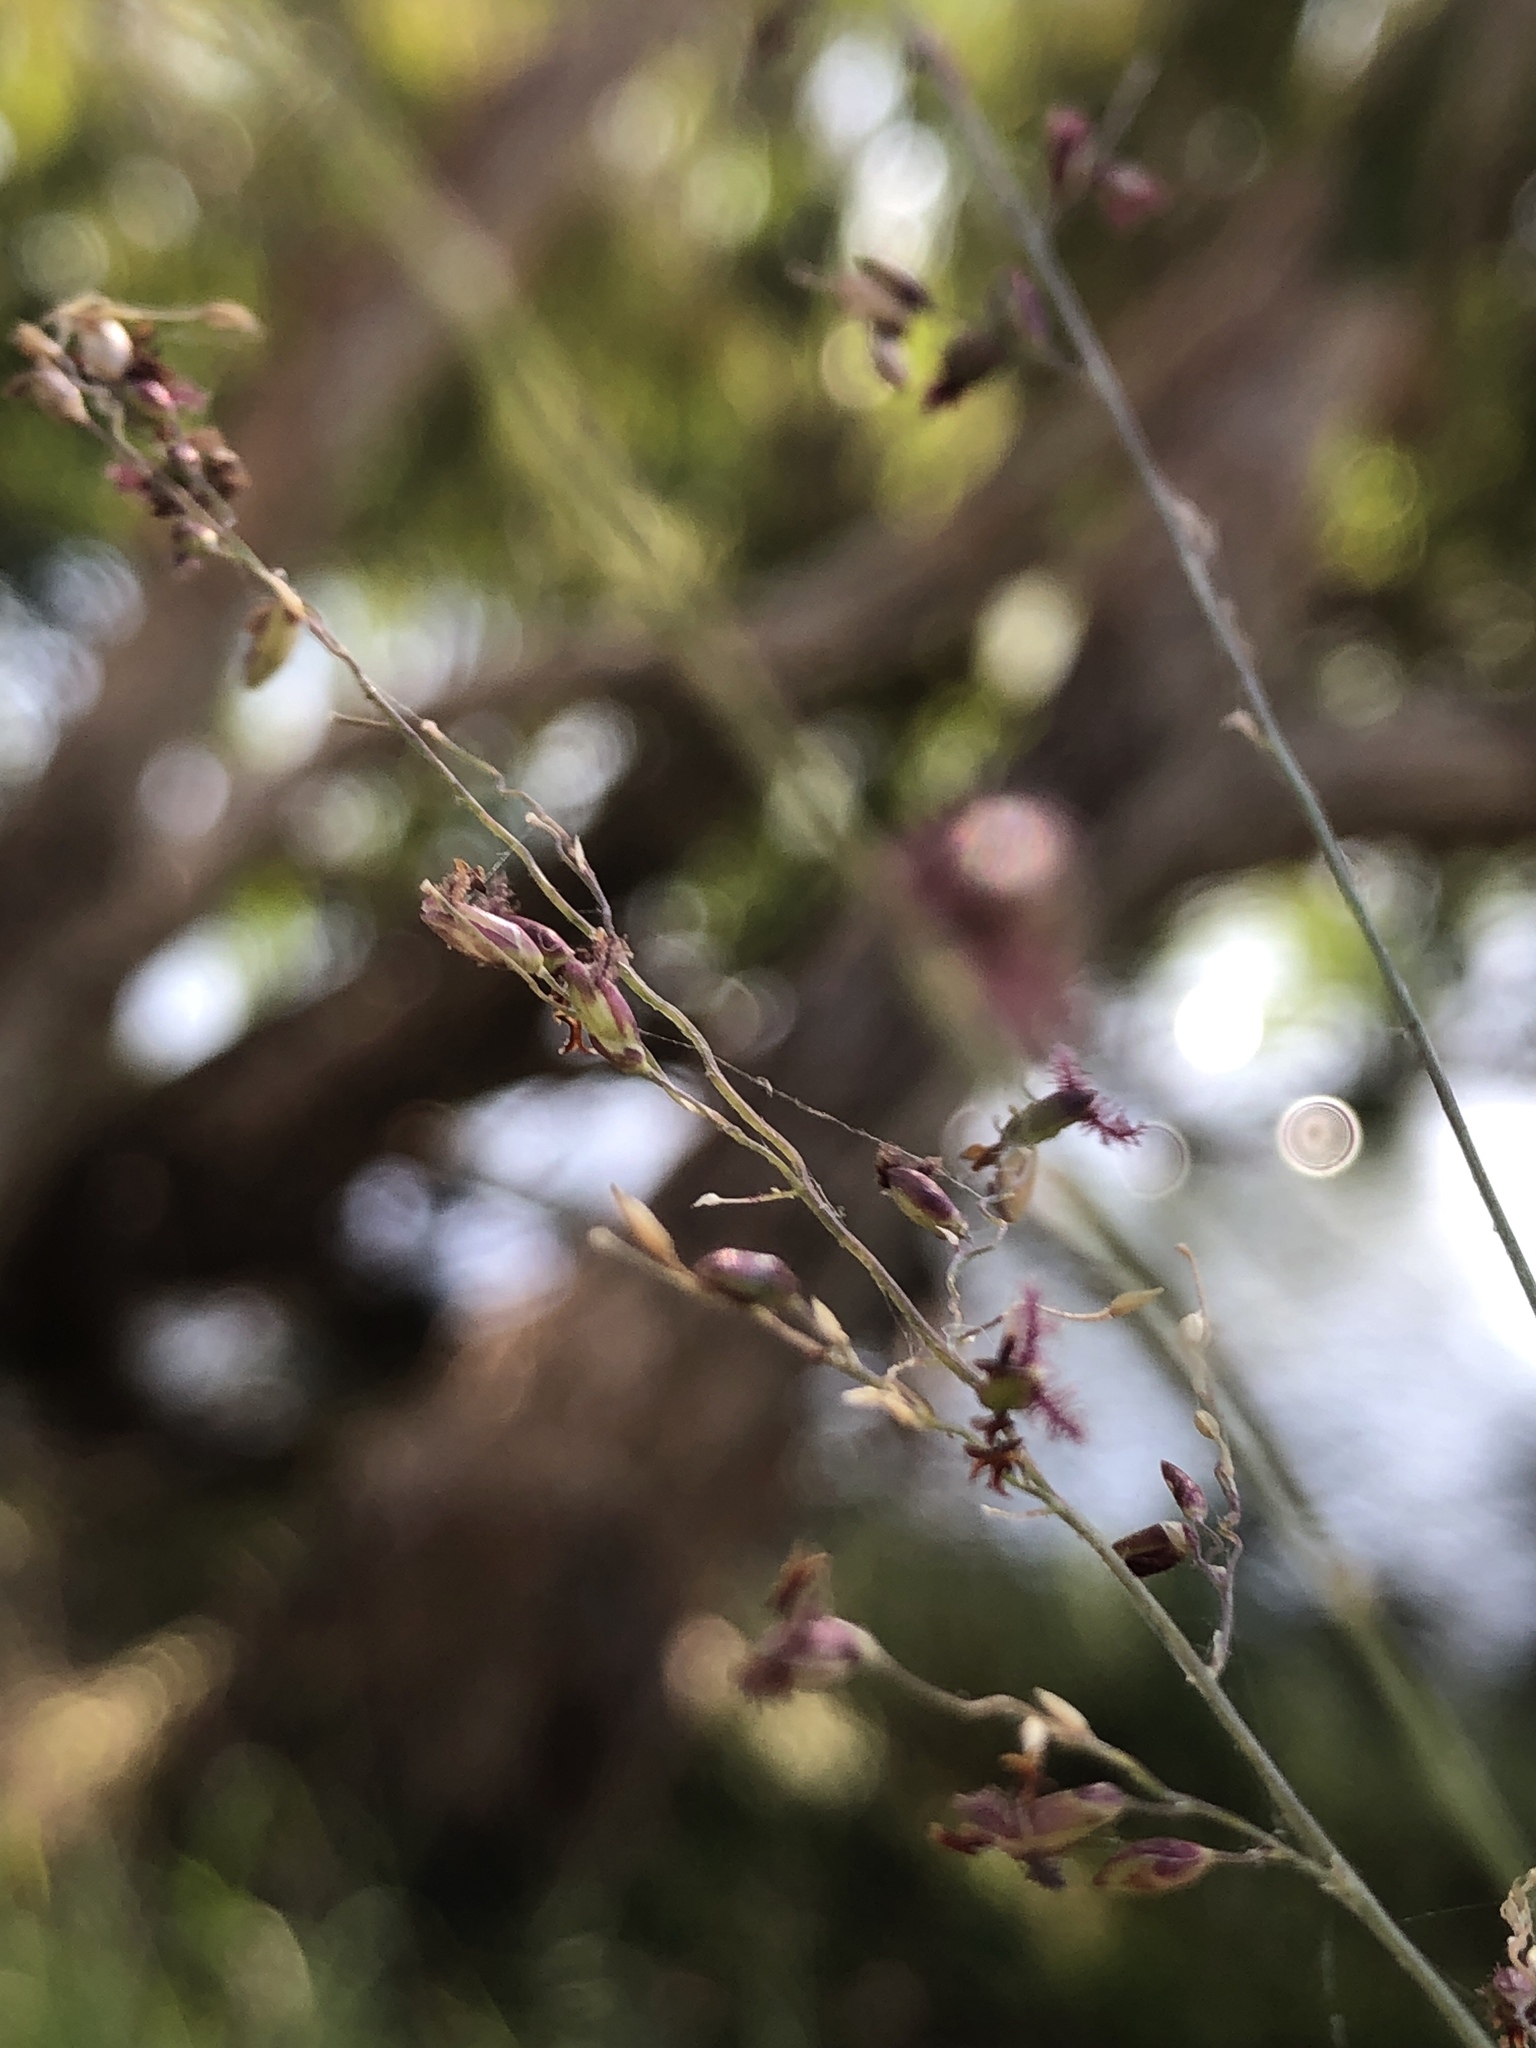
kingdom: Plantae
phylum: Tracheophyta
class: Liliopsida
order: Poales
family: Poaceae
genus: Megathyrsus
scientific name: Megathyrsus maximus
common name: Guineagrass
